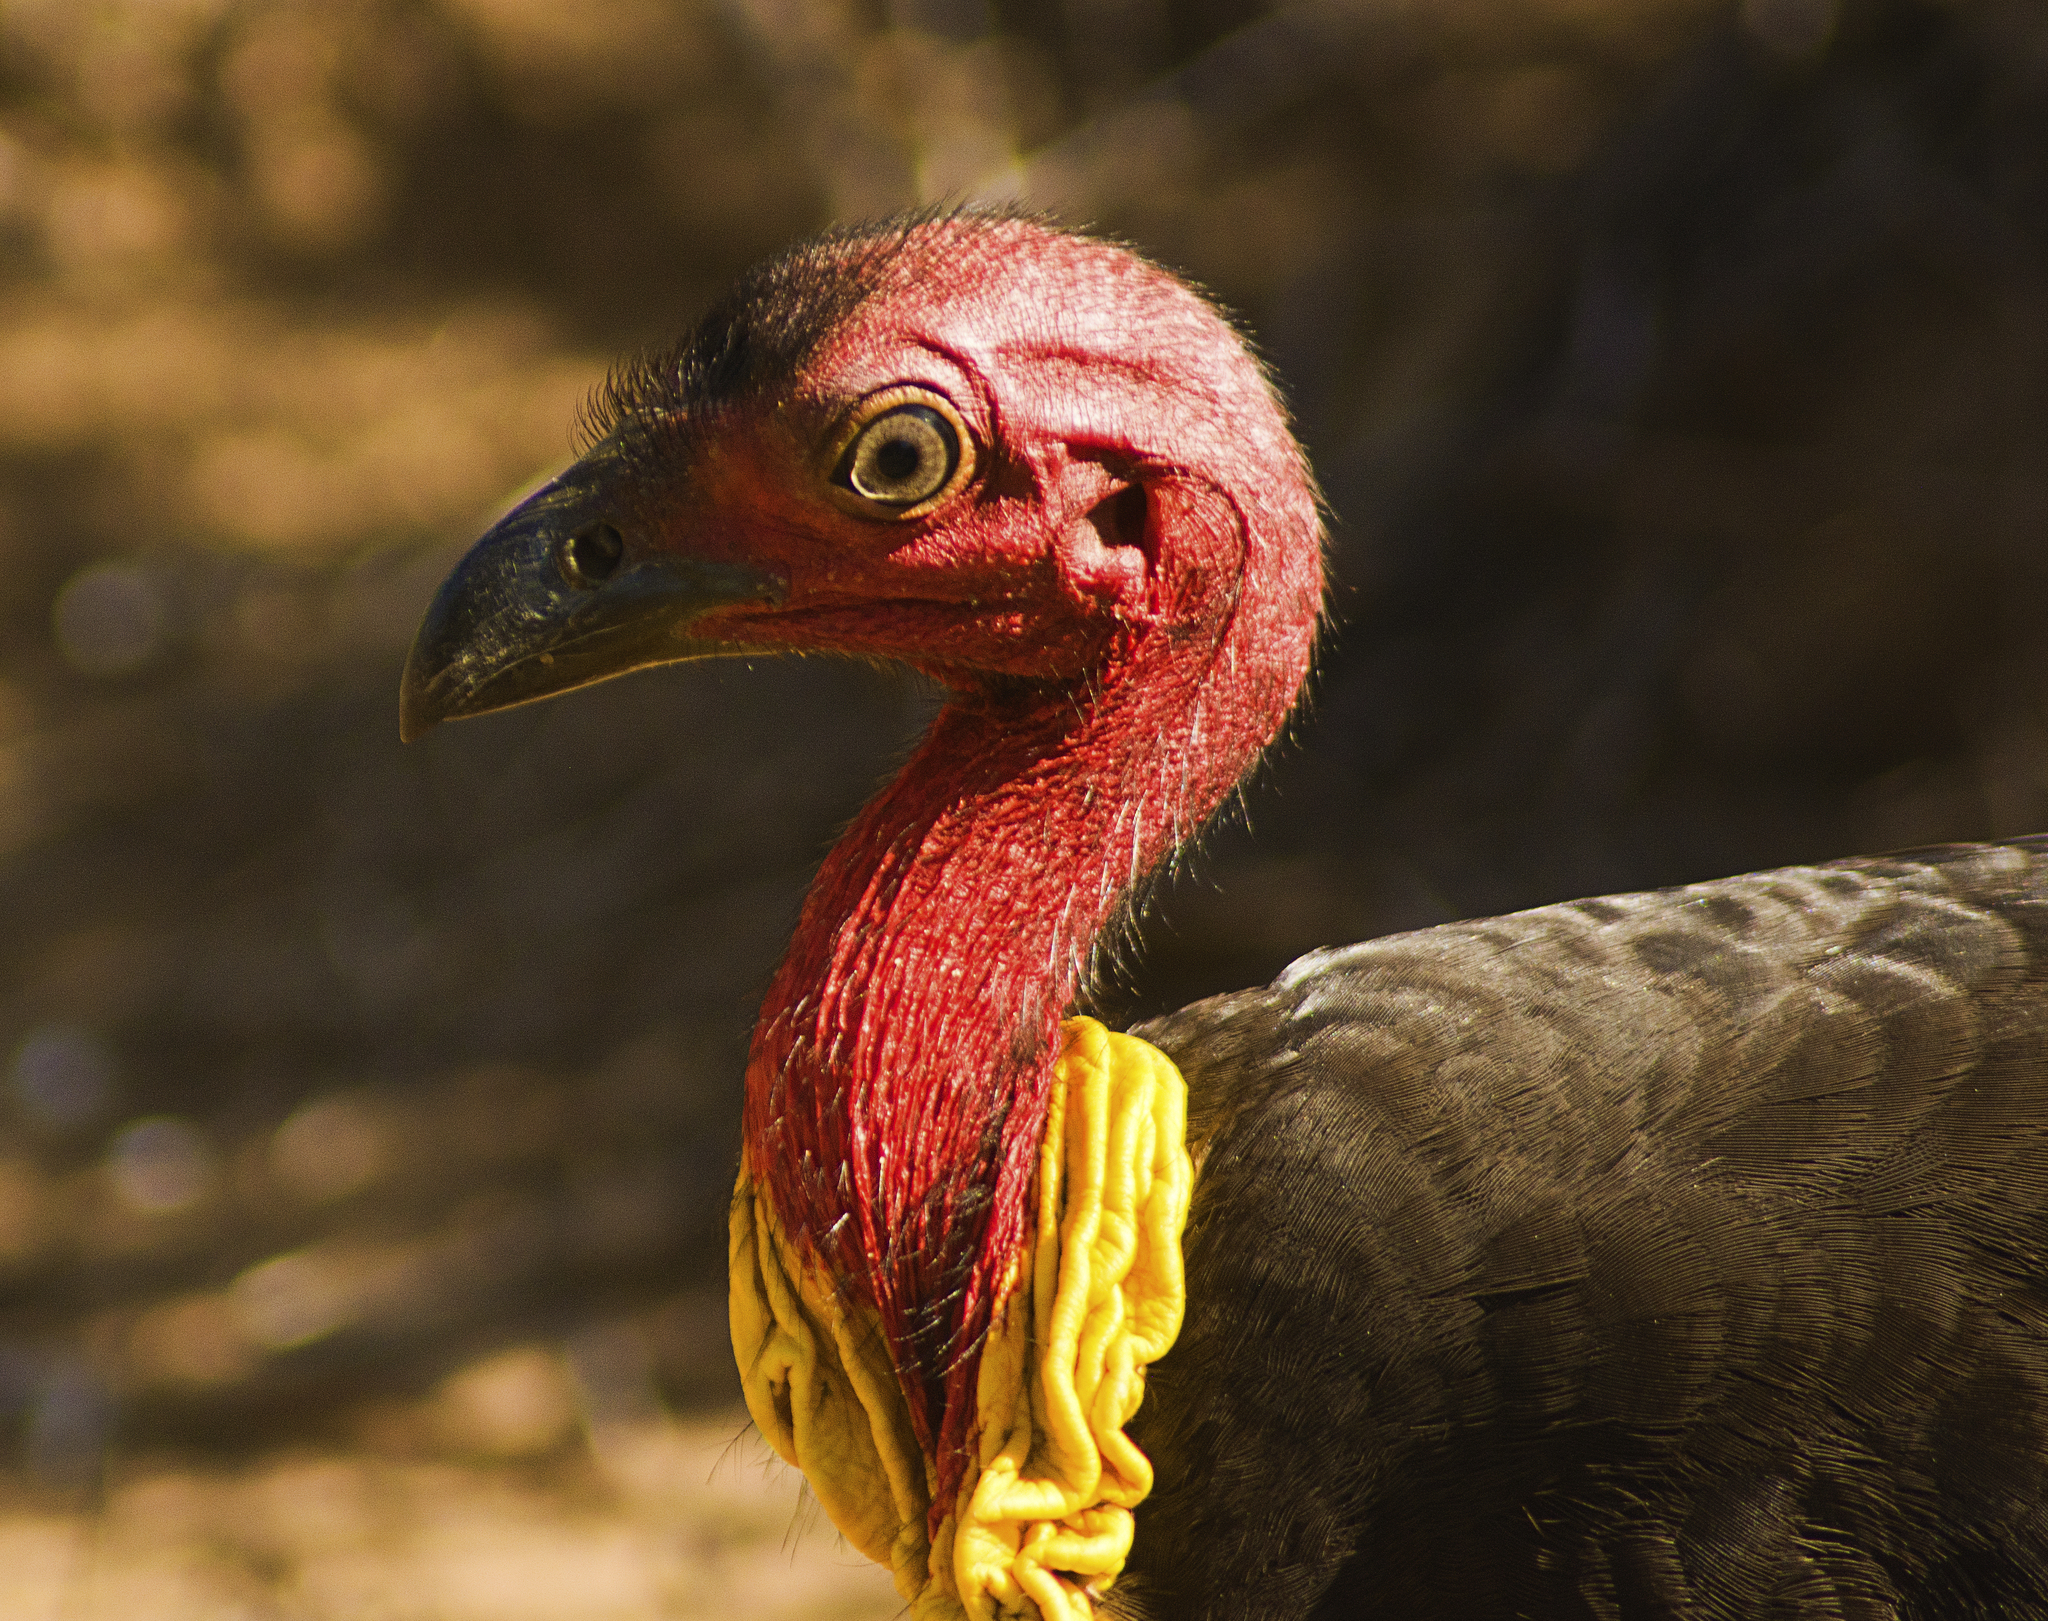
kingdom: Animalia
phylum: Chordata
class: Aves
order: Galliformes
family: Megapodiidae
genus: Alectura
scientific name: Alectura lathami
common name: Australian brushturkey
